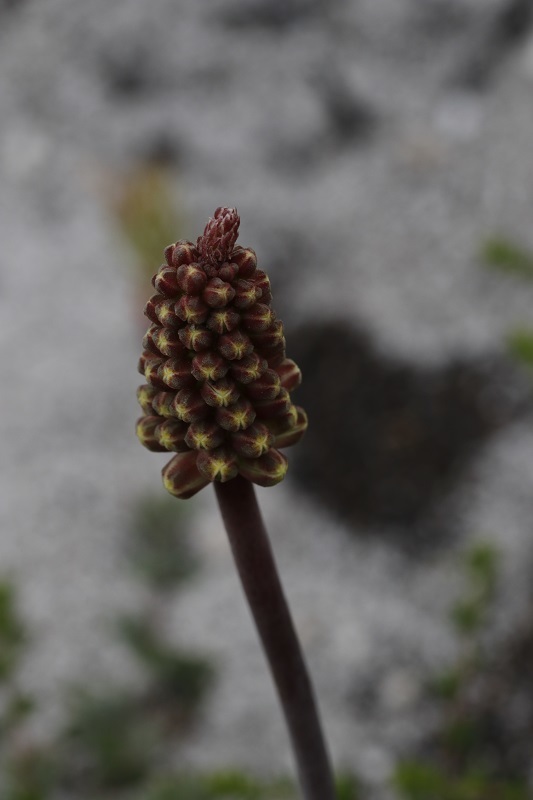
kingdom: Plantae
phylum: Tracheophyta
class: Liliopsida
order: Asparagales
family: Asparagaceae
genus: Lachenalia
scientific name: Lachenalia montana
